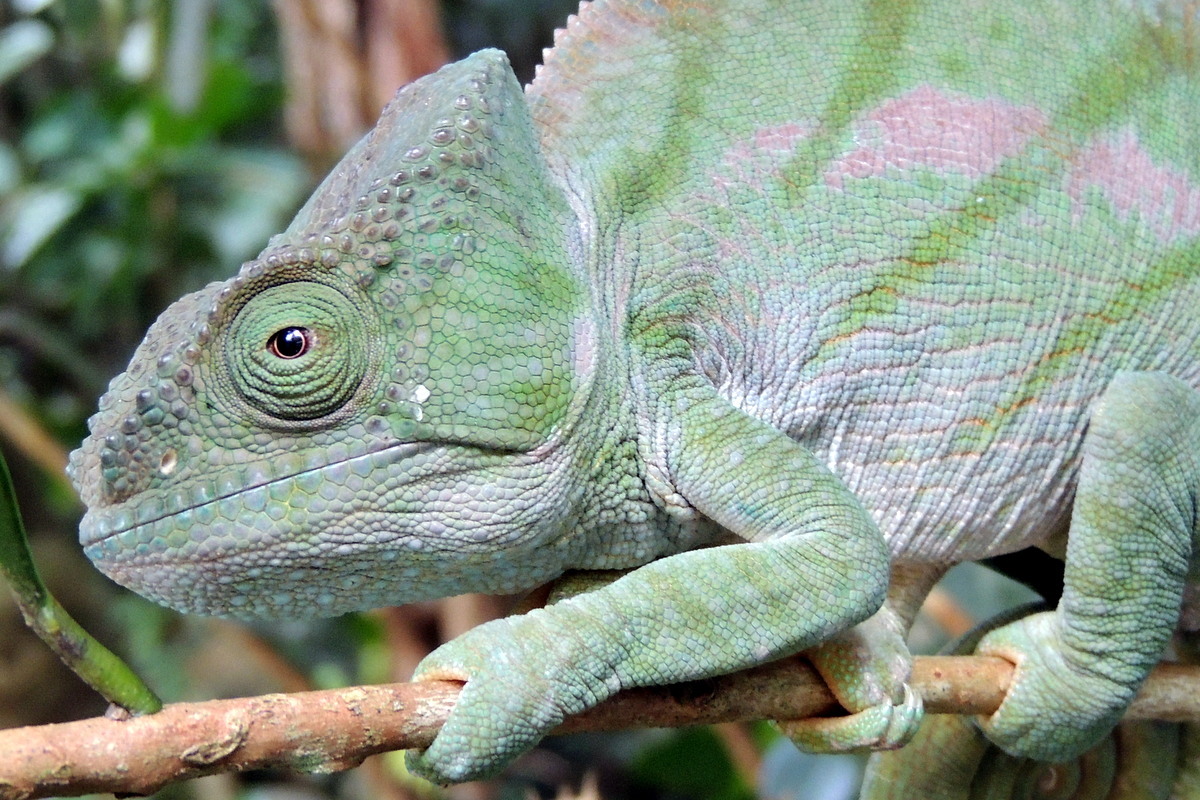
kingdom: Animalia
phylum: Chordata
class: Squamata
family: Chamaeleonidae
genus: Calumma
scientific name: Calumma parsonii
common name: Parson's chameleon
